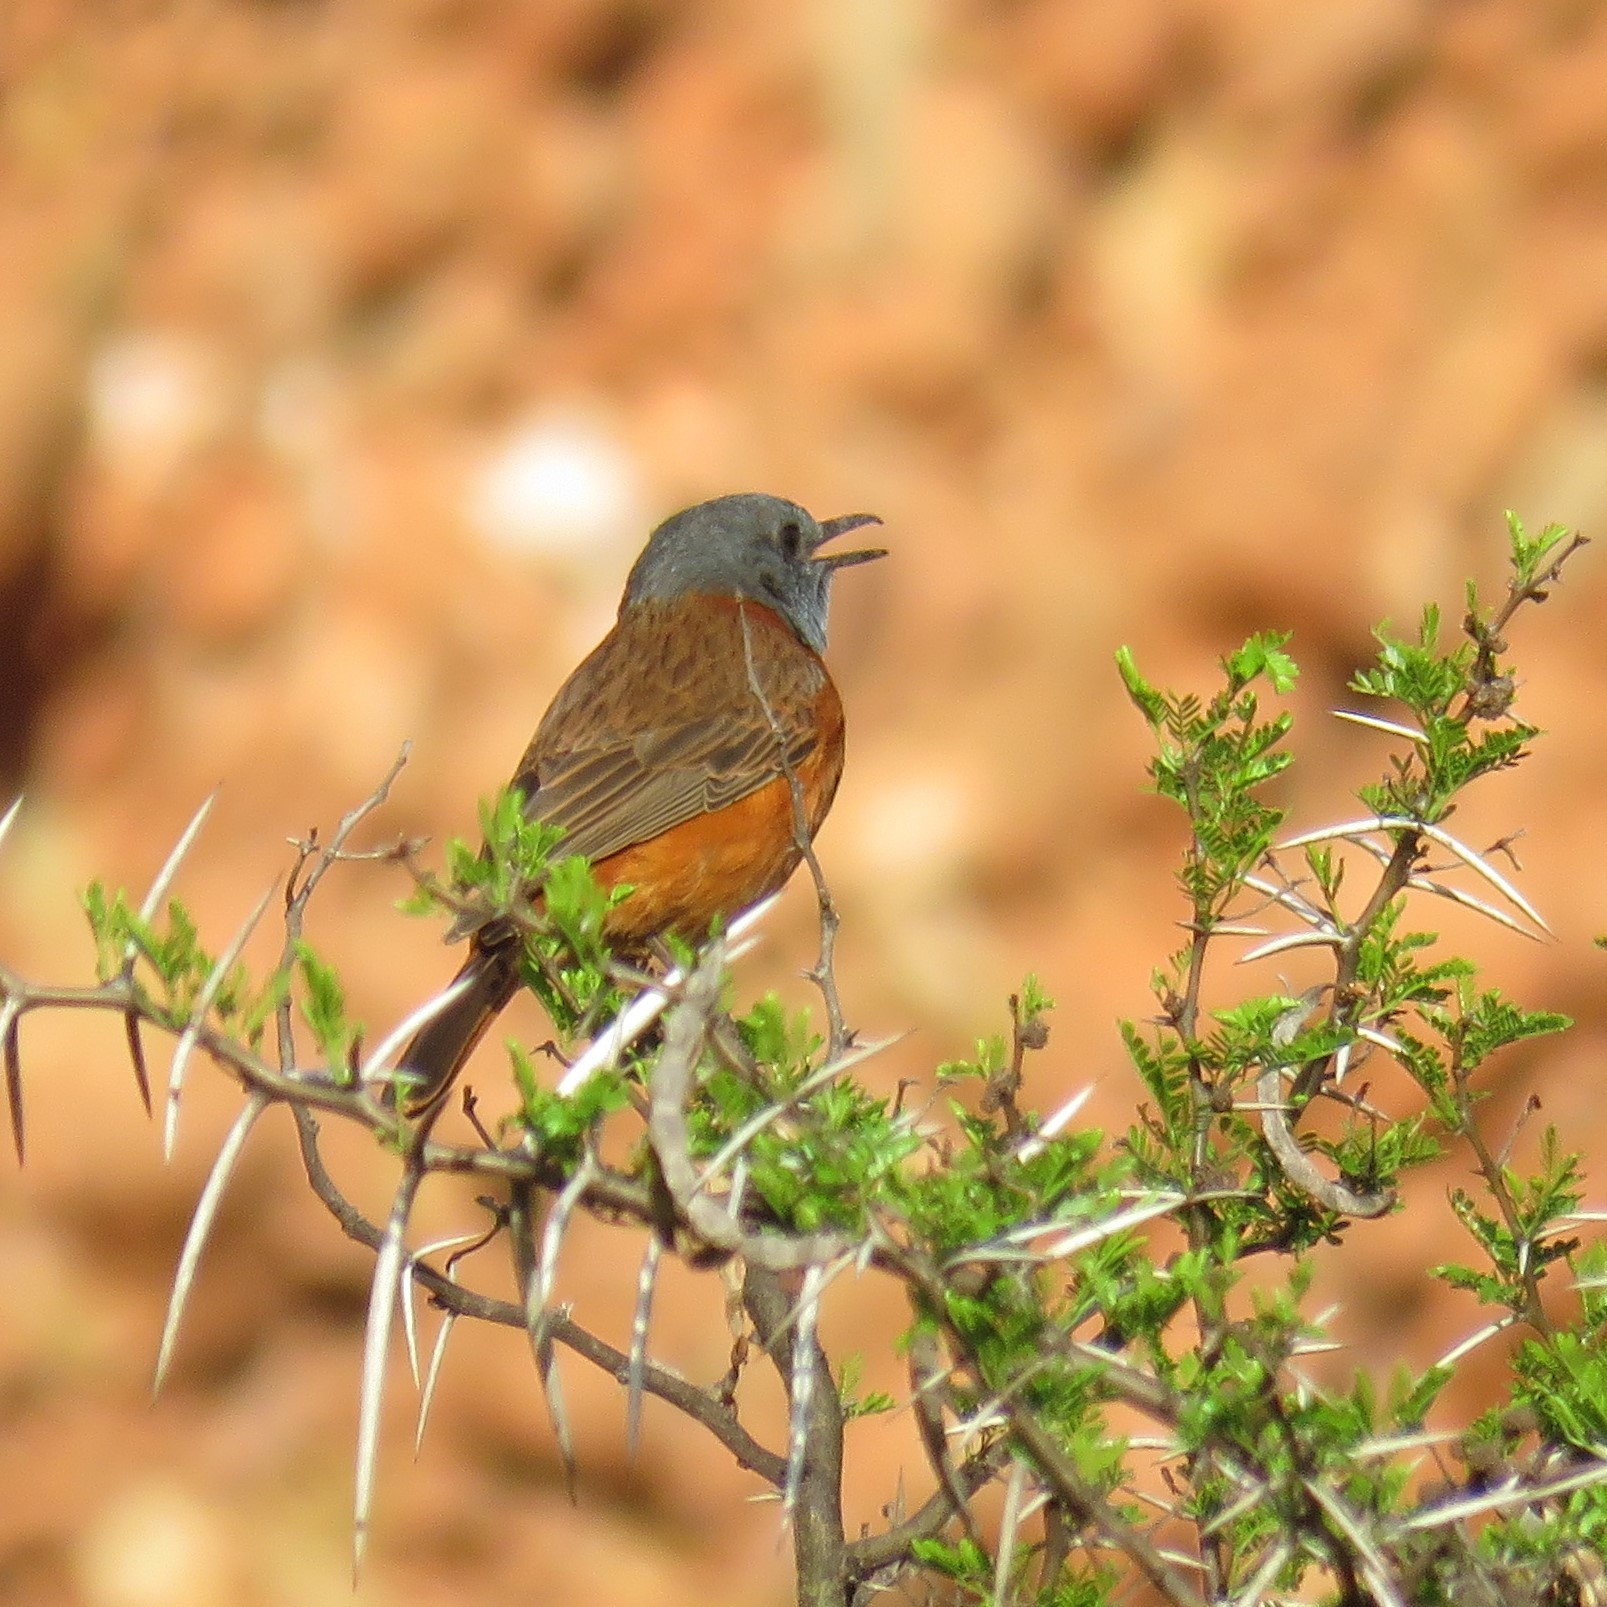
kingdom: Animalia
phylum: Chordata
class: Aves
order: Passeriformes
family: Muscicapidae
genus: Monticola
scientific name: Monticola rupestris
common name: Cape rock thrush
